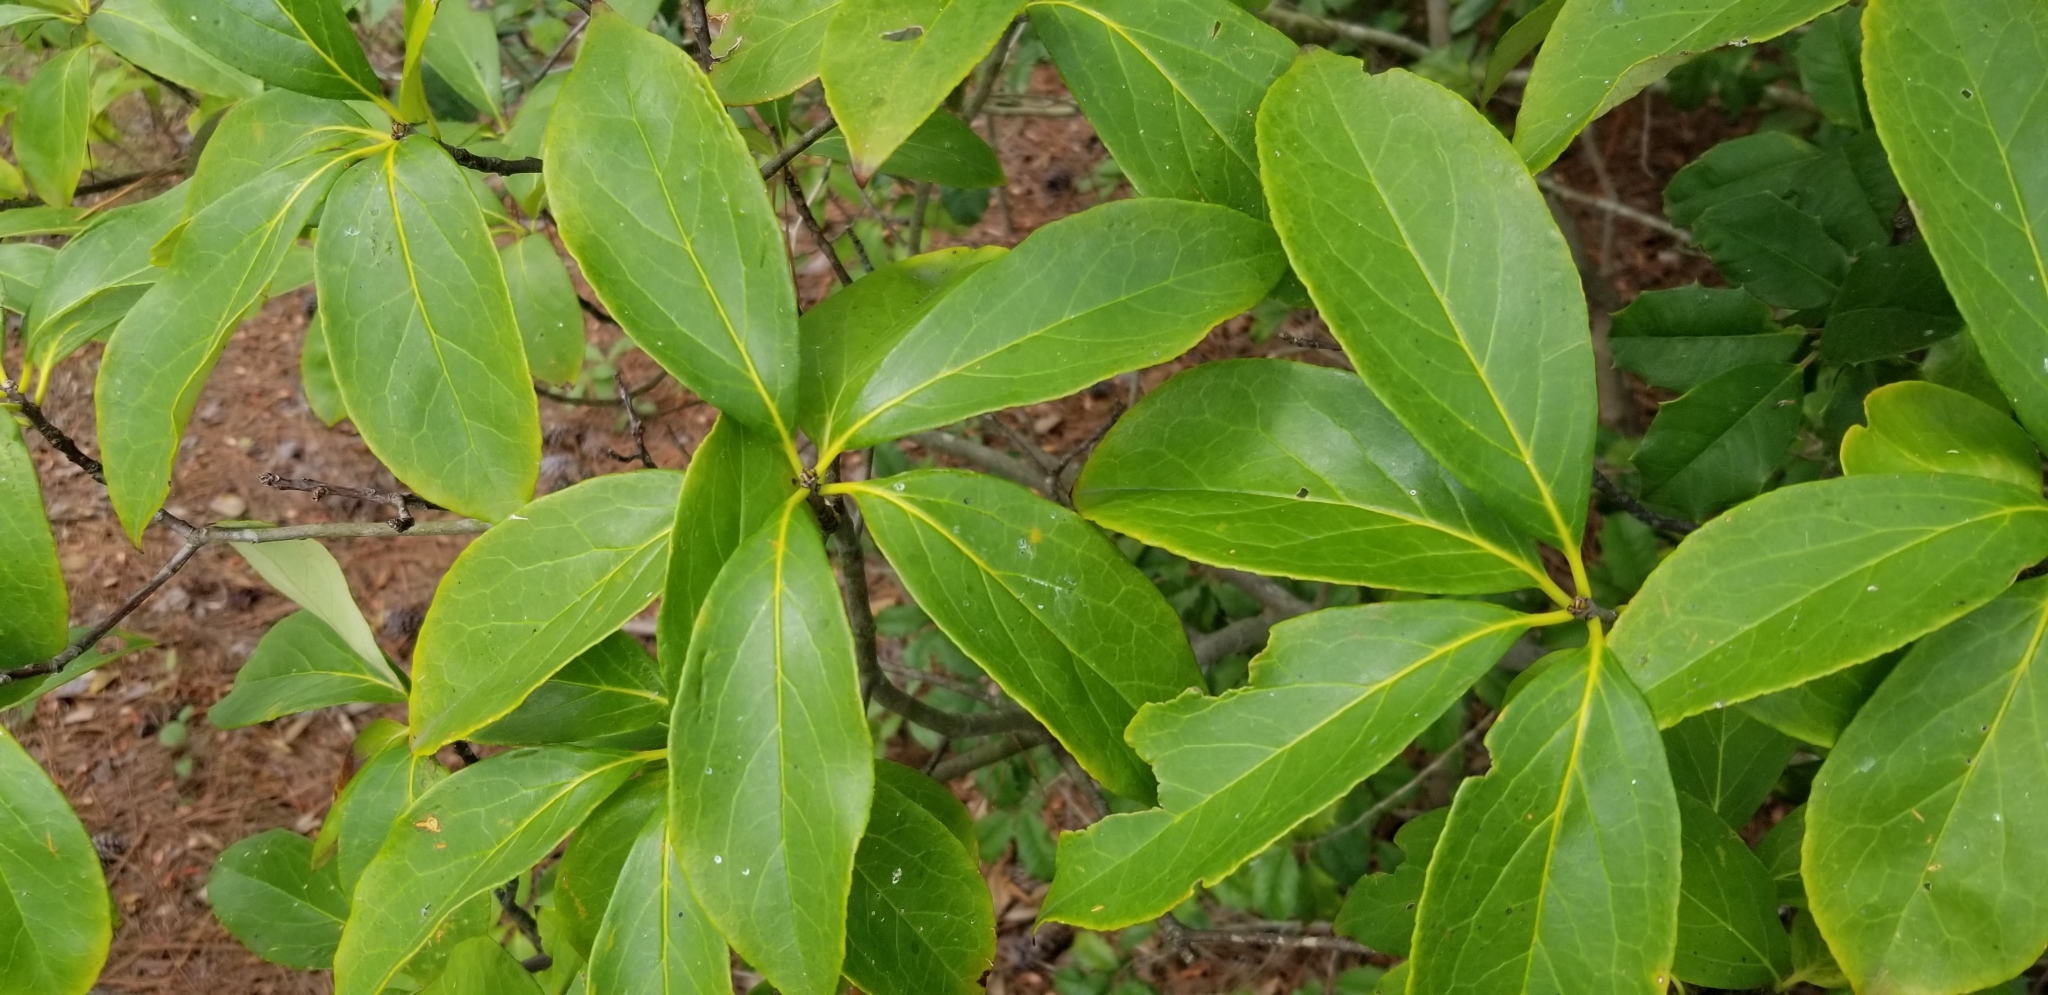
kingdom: Plantae
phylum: Tracheophyta
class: Magnoliopsida
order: Ericales
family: Symplocaceae
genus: Symplocos
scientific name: Symplocos tinctoria
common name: Horse-sugar
